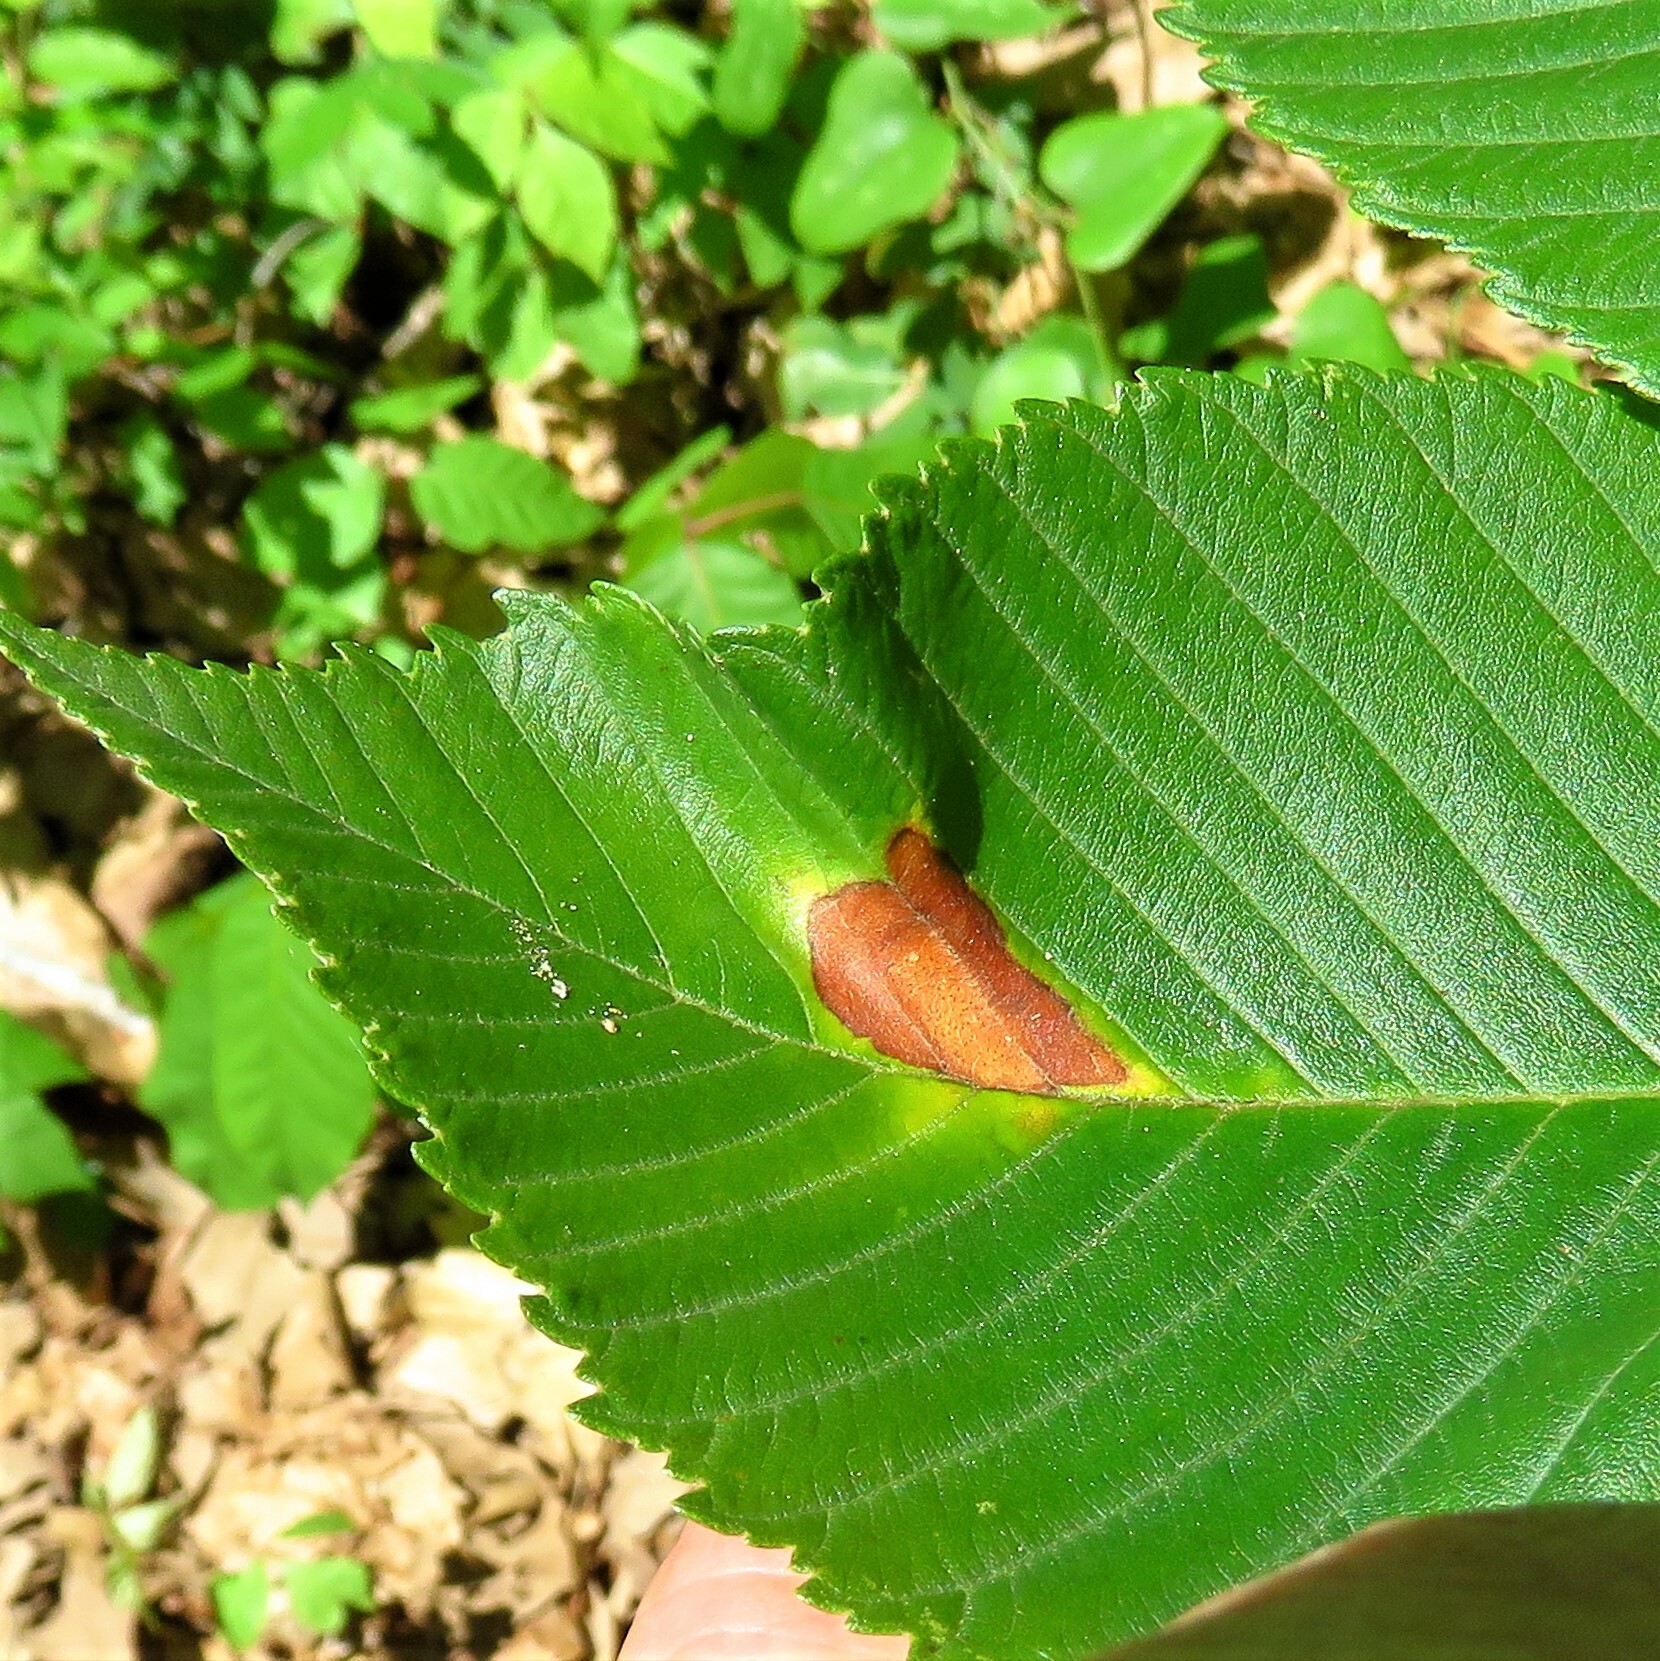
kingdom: Fungi
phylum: Ascomycota
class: Dothideomycetes
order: Botryosphaeriales
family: Phyllostictaceae
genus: Phyllosticta
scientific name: Phyllosticta paviae
